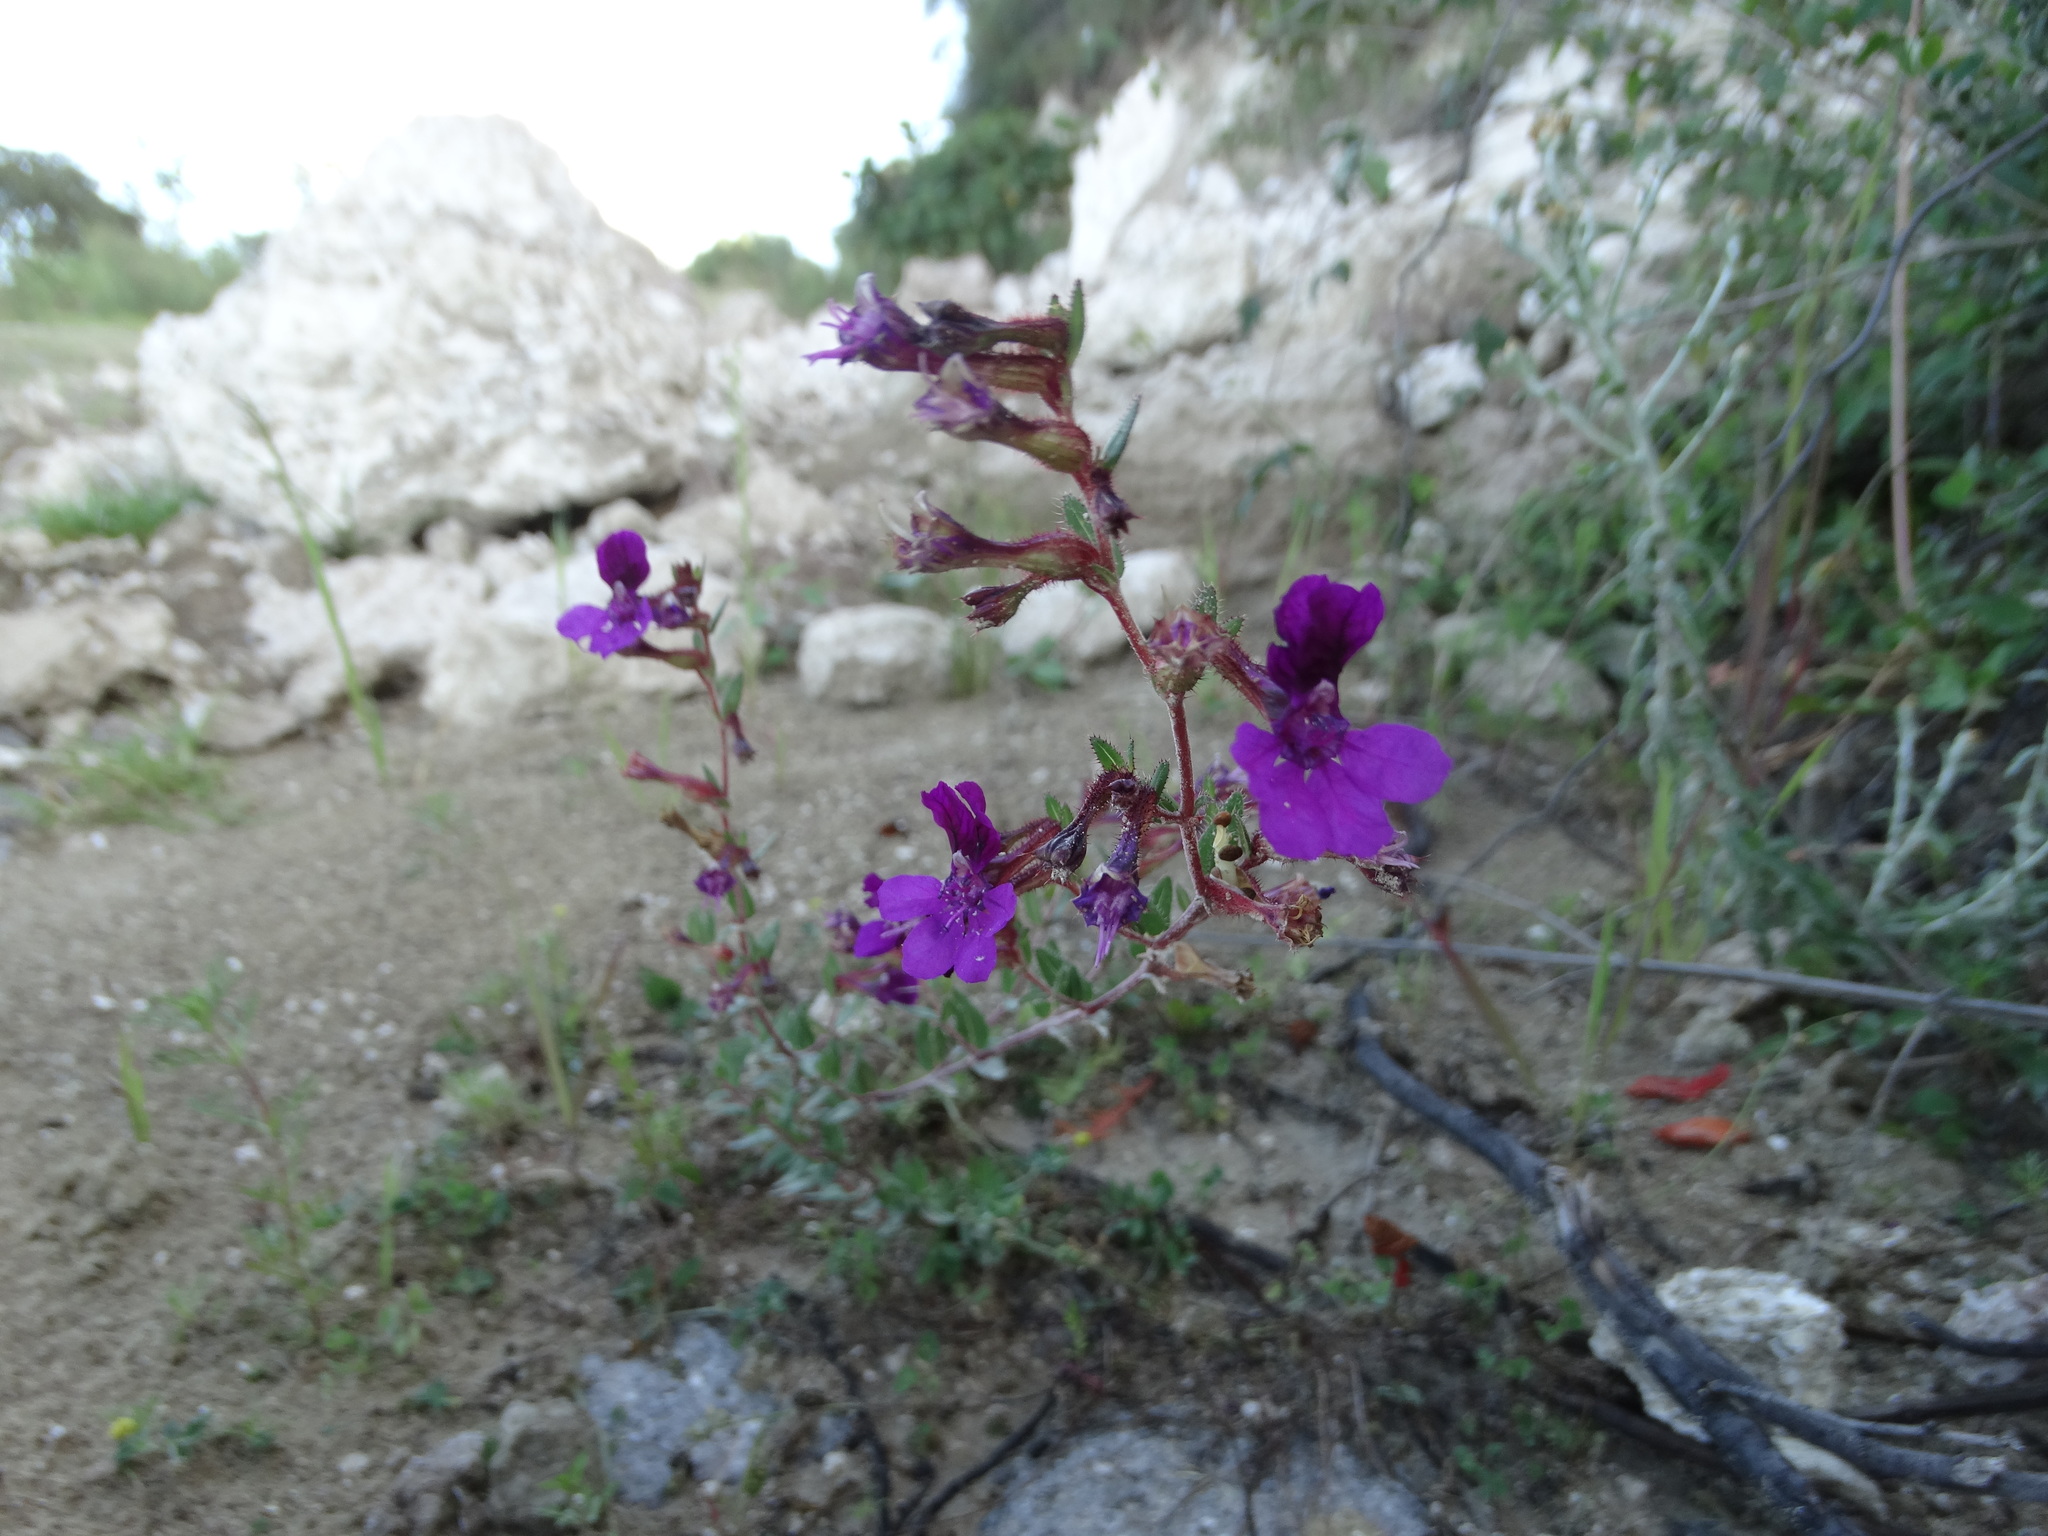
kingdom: Plantae
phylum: Tracheophyta
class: Magnoliopsida
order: Myrtales
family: Lythraceae
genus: Cuphea
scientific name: Cuphea aequipetala
